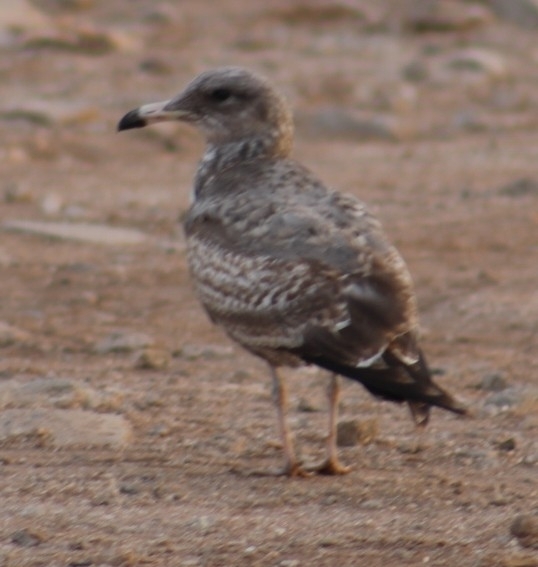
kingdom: Animalia
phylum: Chordata
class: Aves
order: Charadriiformes
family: Laridae
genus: Larus
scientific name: Larus californicus
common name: California gull
